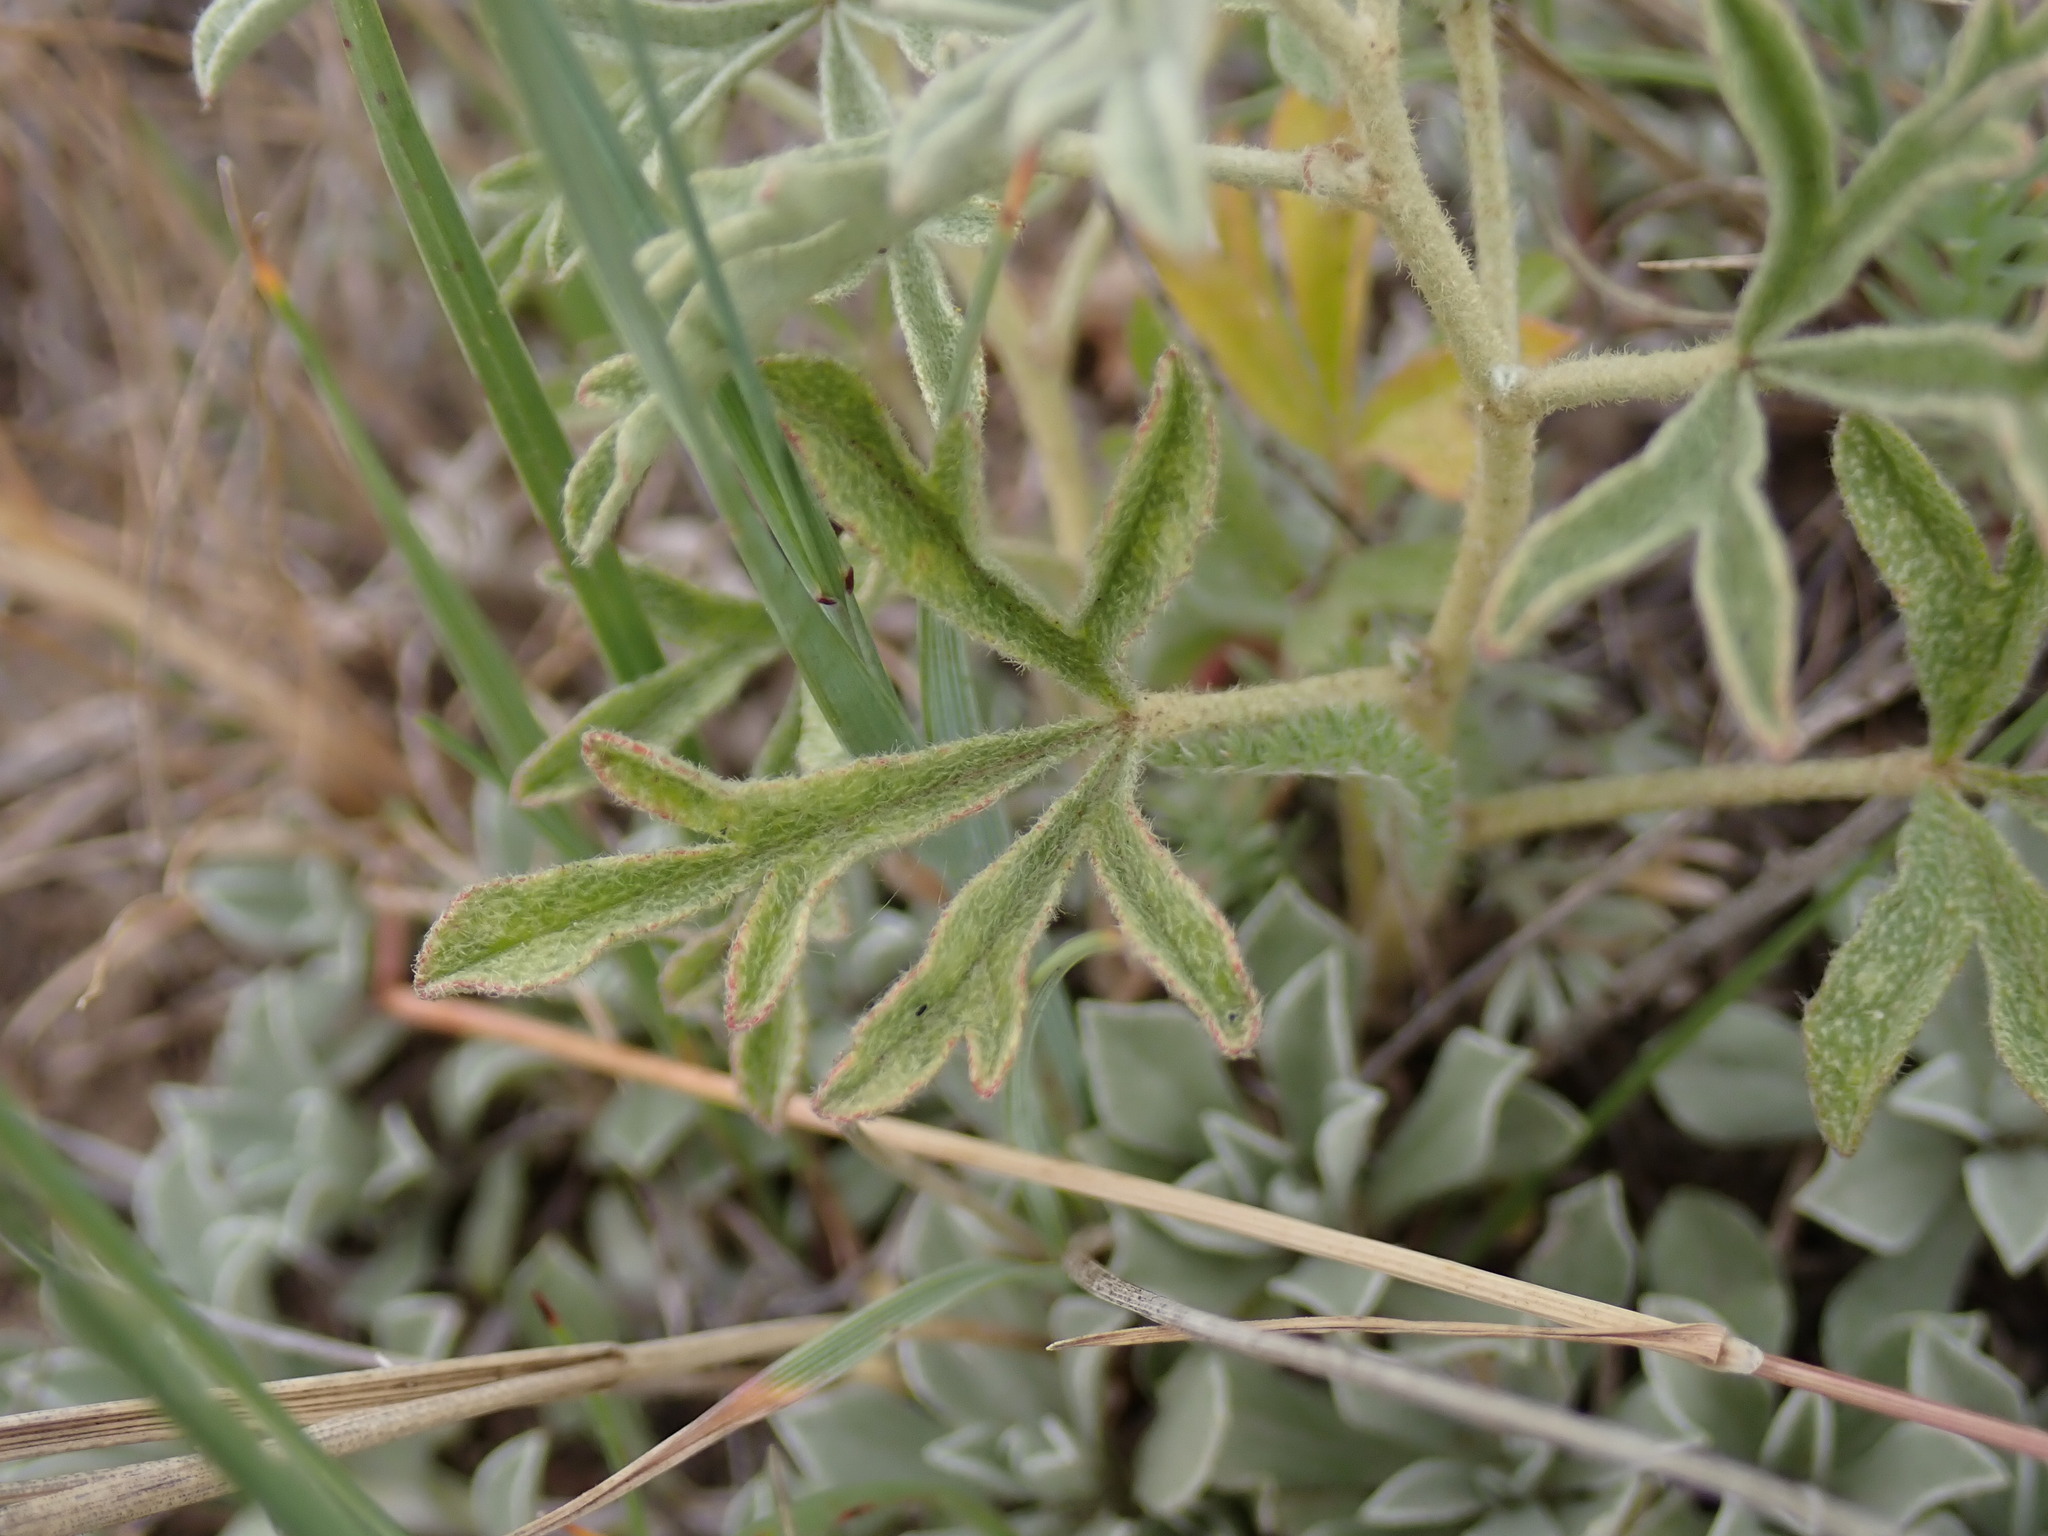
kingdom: Plantae
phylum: Tracheophyta
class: Magnoliopsida
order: Malvales
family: Malvaceae
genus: Sphaeralcea
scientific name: Sphaeralcea coccinea
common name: Moss-rose
